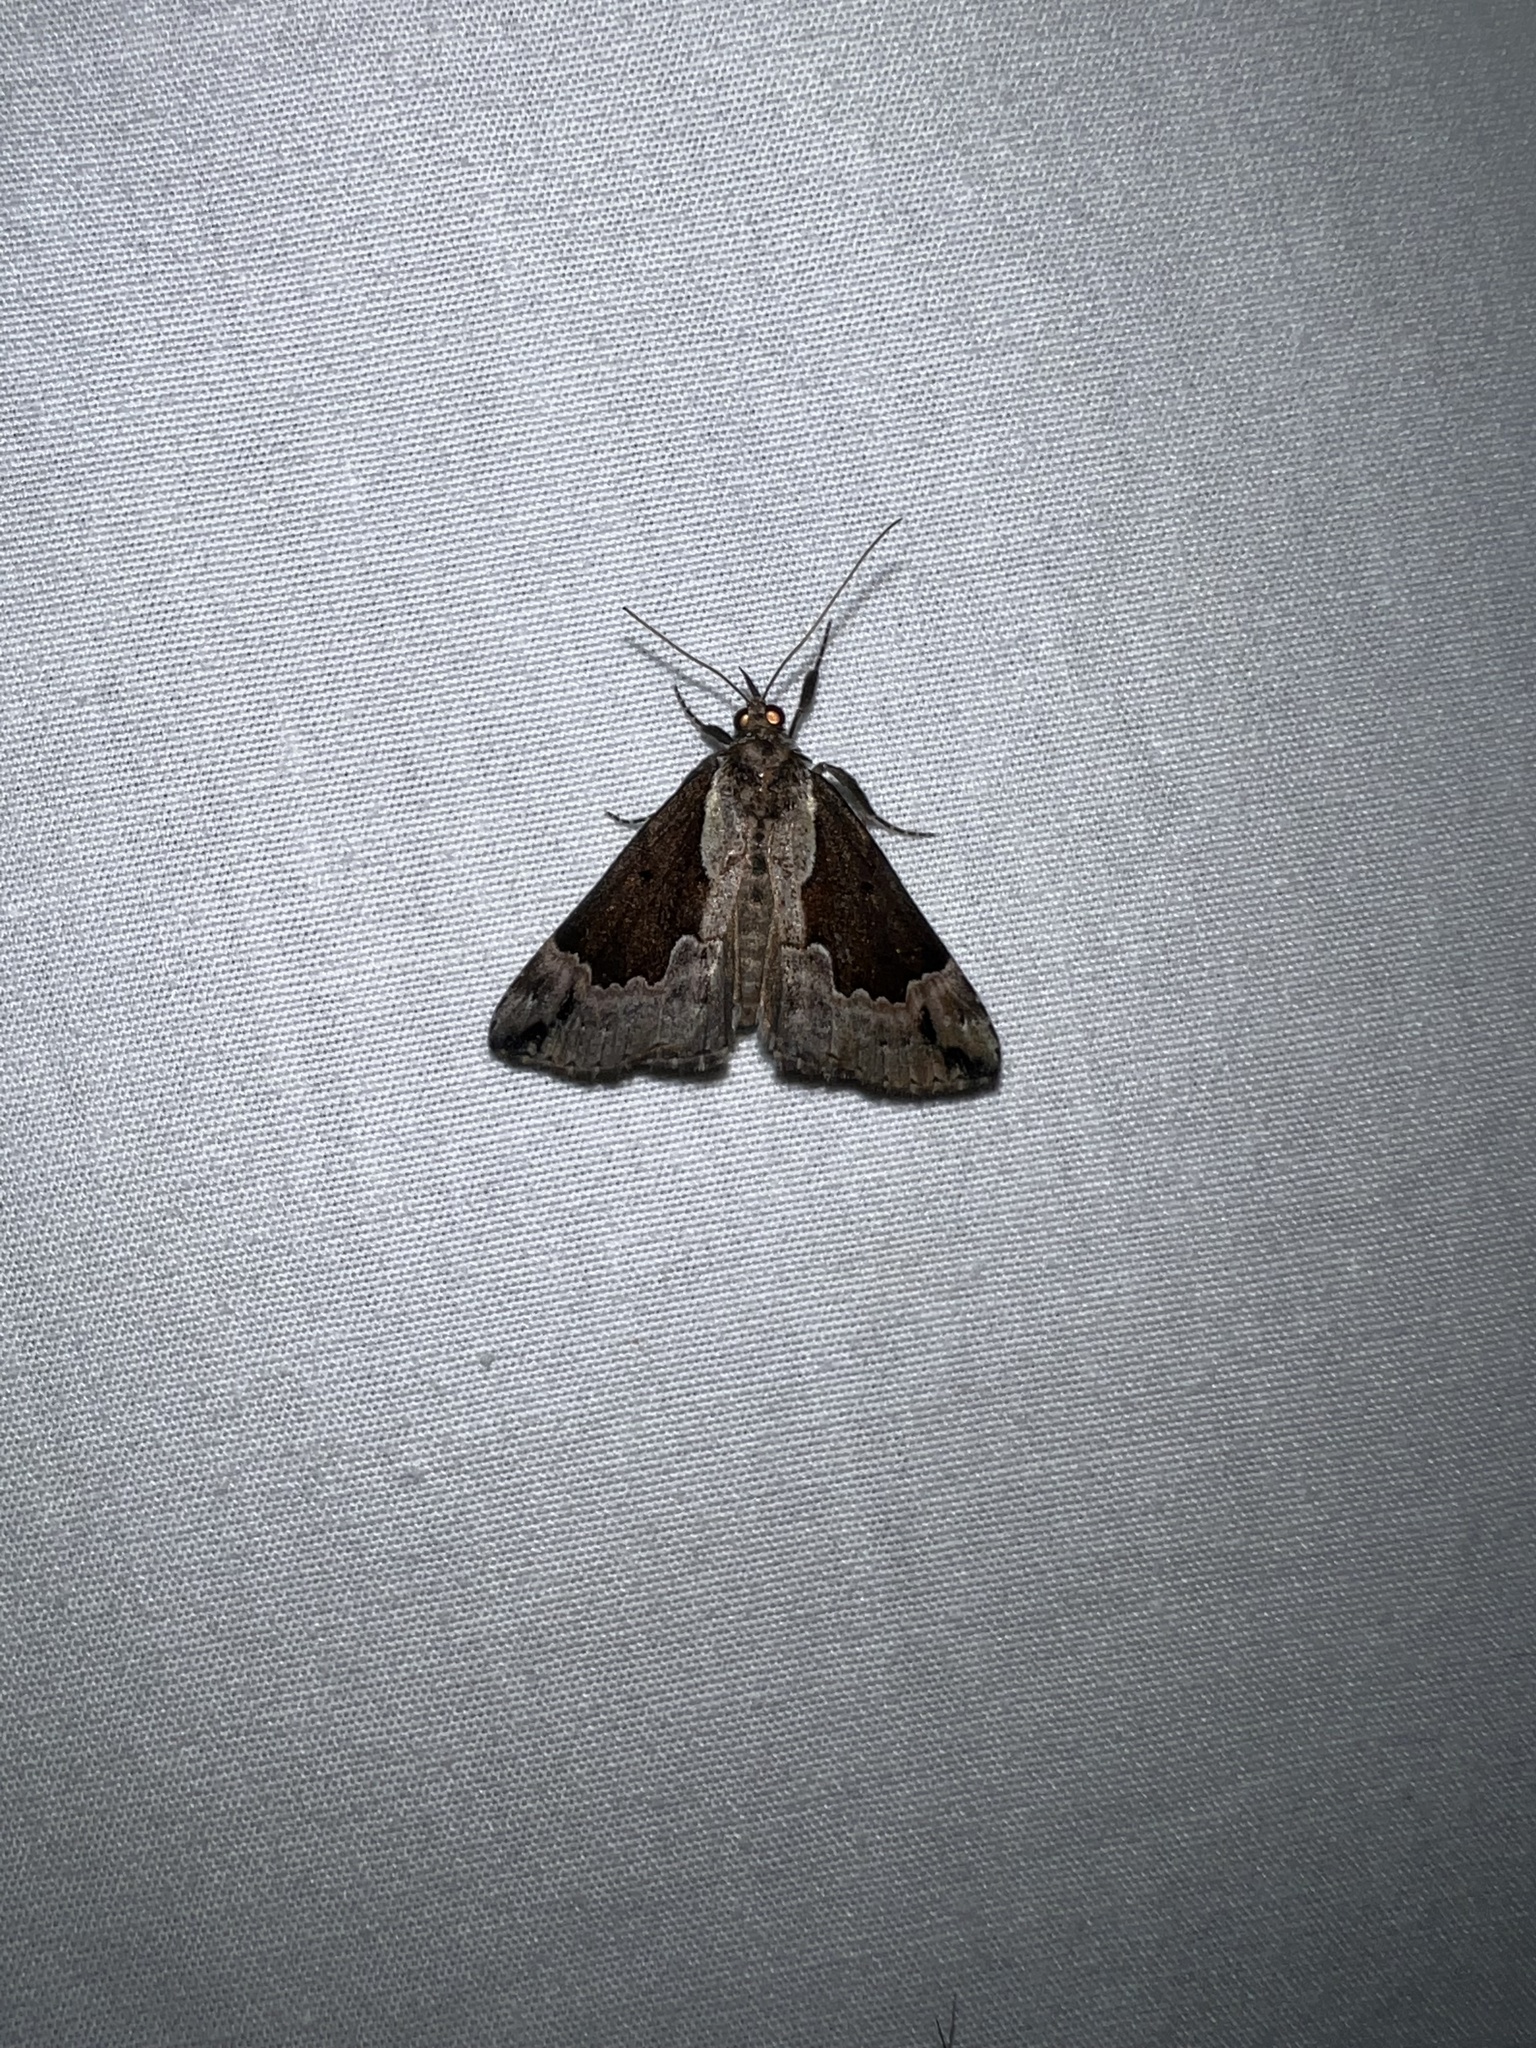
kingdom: Animalia
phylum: Arthropoda
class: Insecta
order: Lepidoptera
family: Erebidae
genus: Hypena
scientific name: Hypena baltimoralis
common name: Baltimore snout
